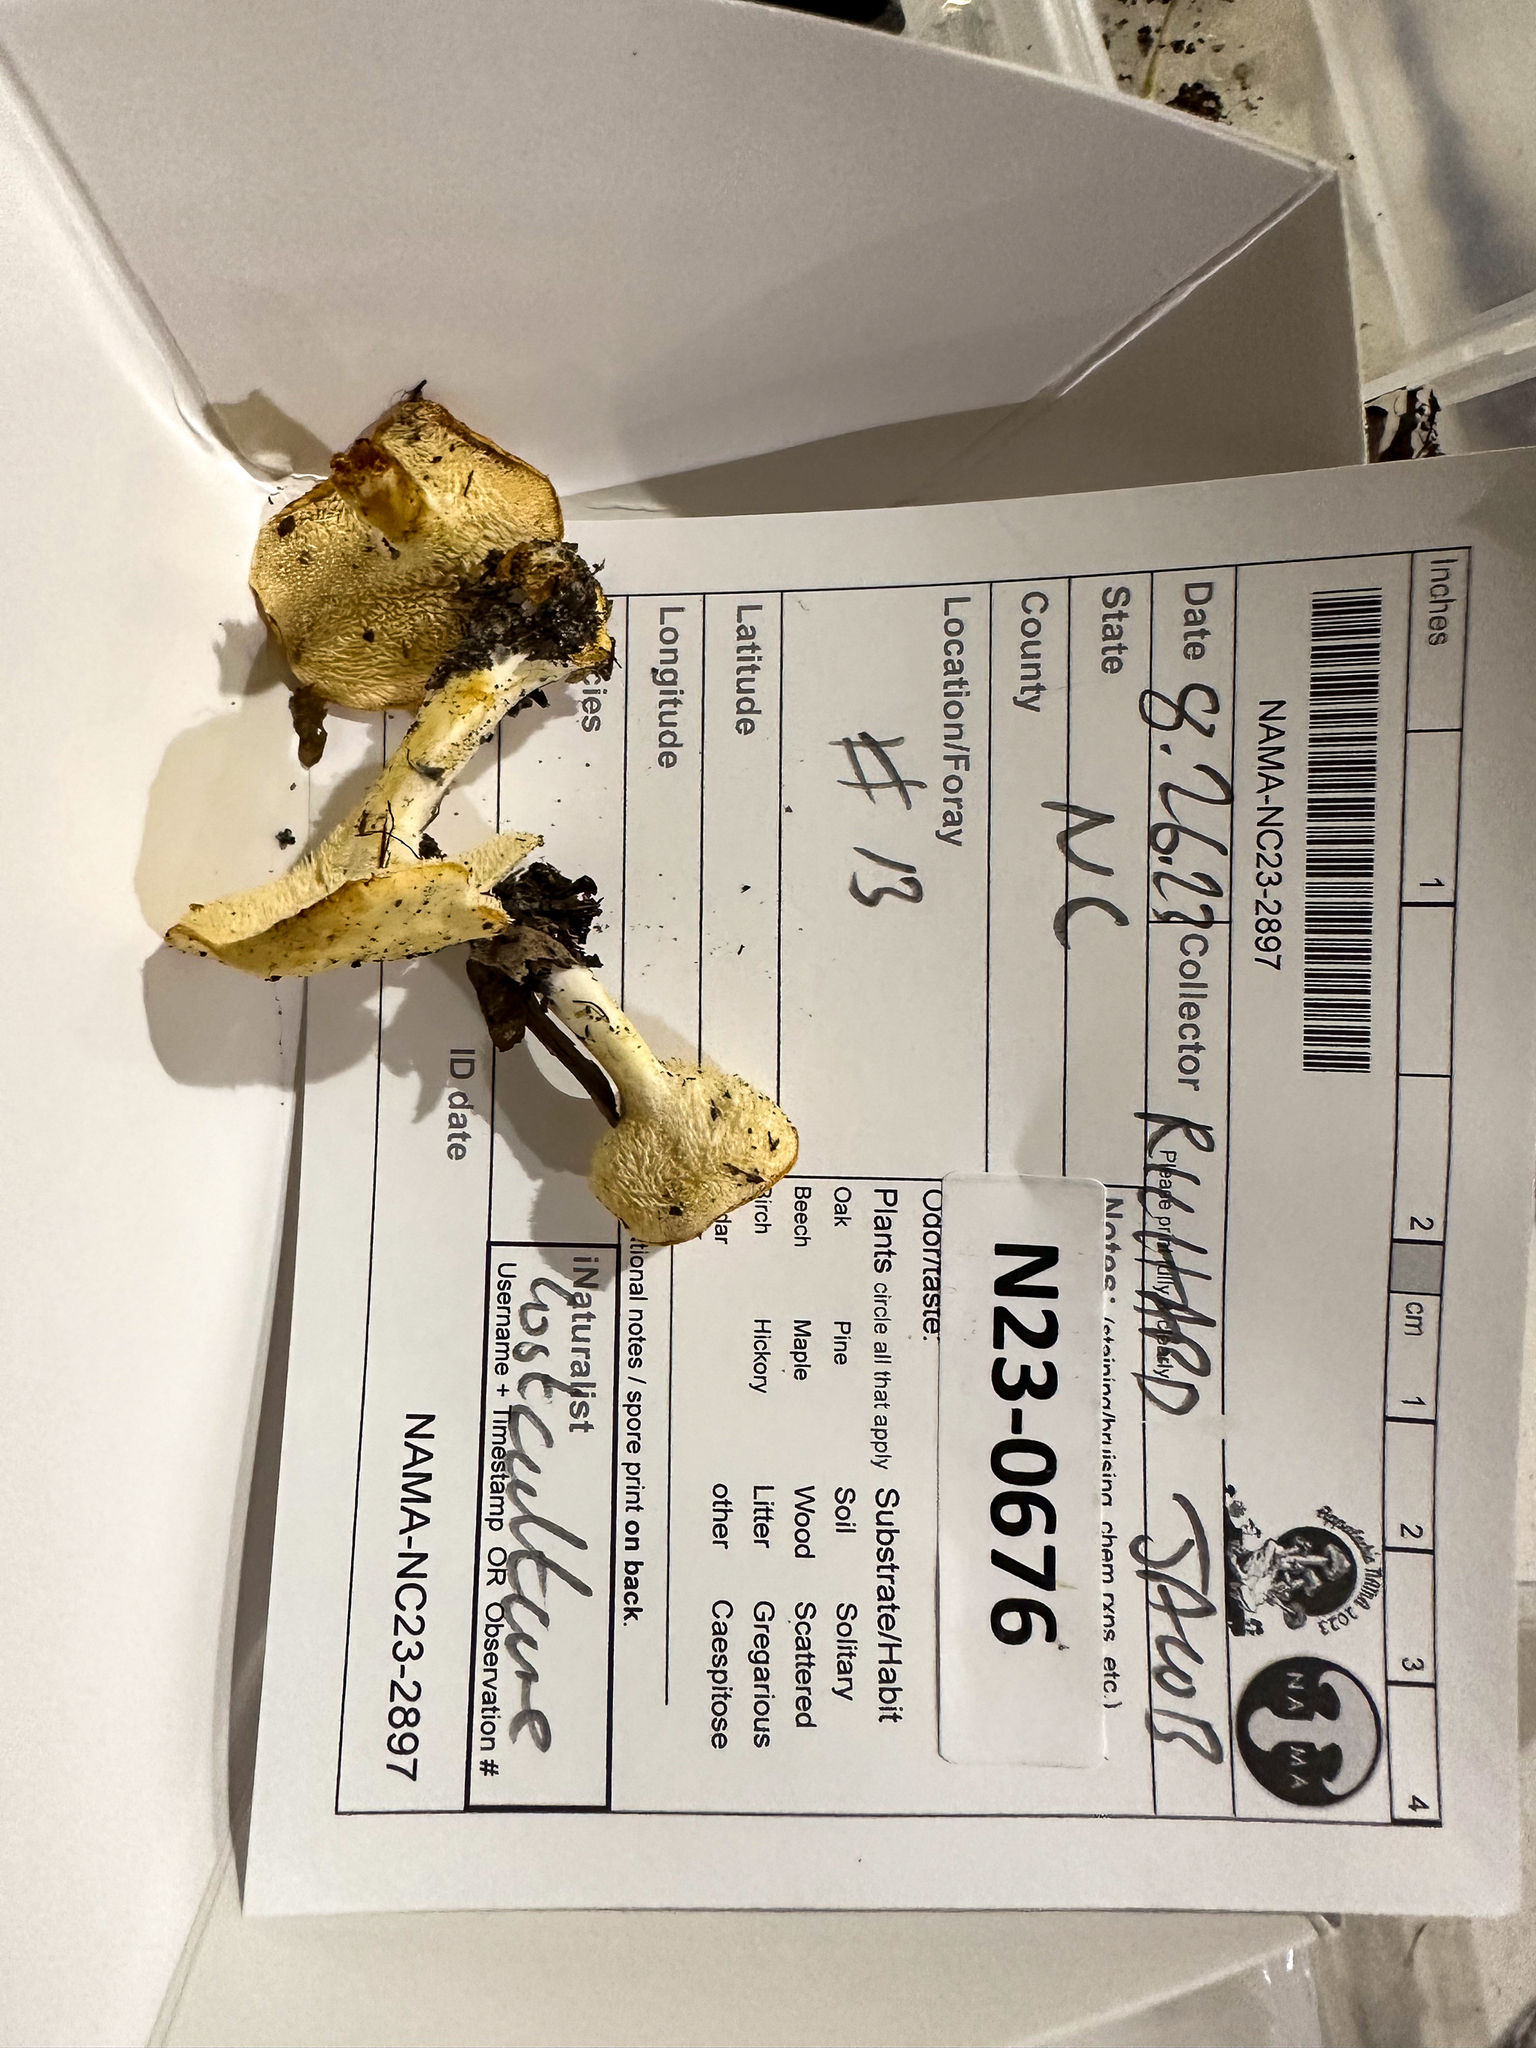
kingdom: Fungi
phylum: Basidiomycota
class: Agaricomycetes
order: Cantharellales
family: Hydnaceae
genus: Hydnum
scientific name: Hydnum albidum
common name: White hedgehog
